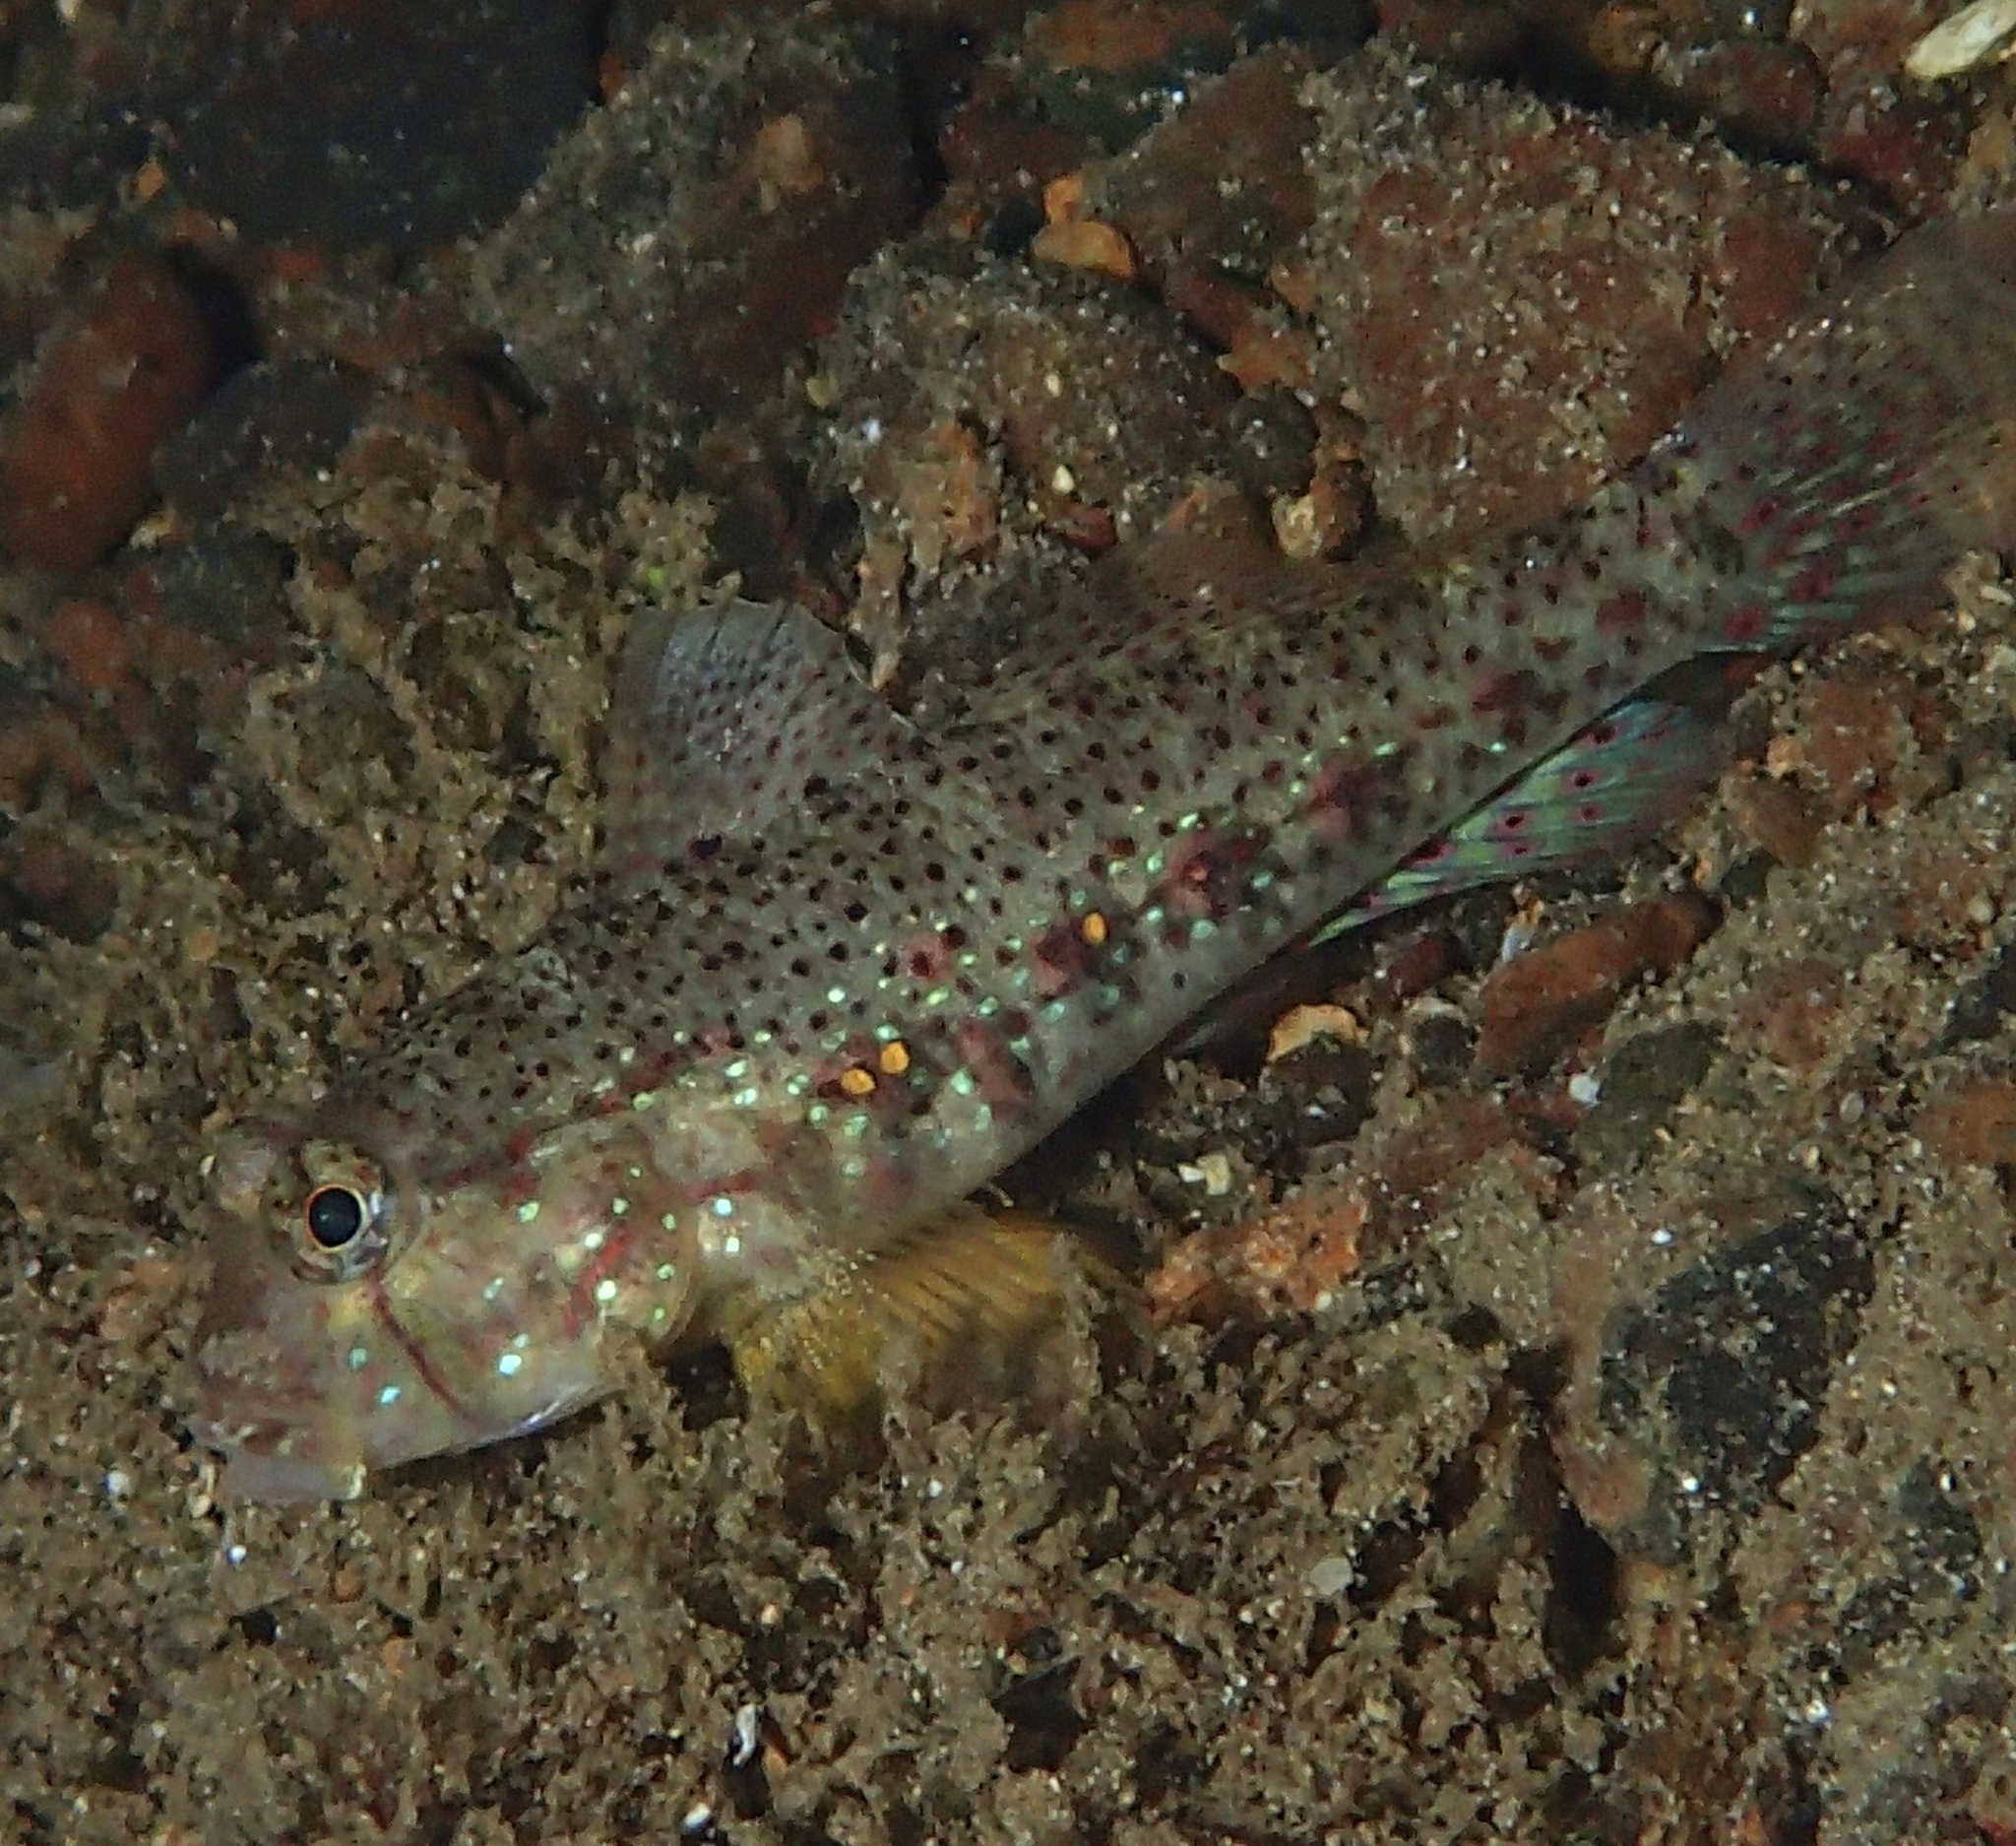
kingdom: Animalia
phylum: Chordata
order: Perciformes
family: Gobiidae
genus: Gnatholepis
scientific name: Gnatholepis ophthalmotaenia
